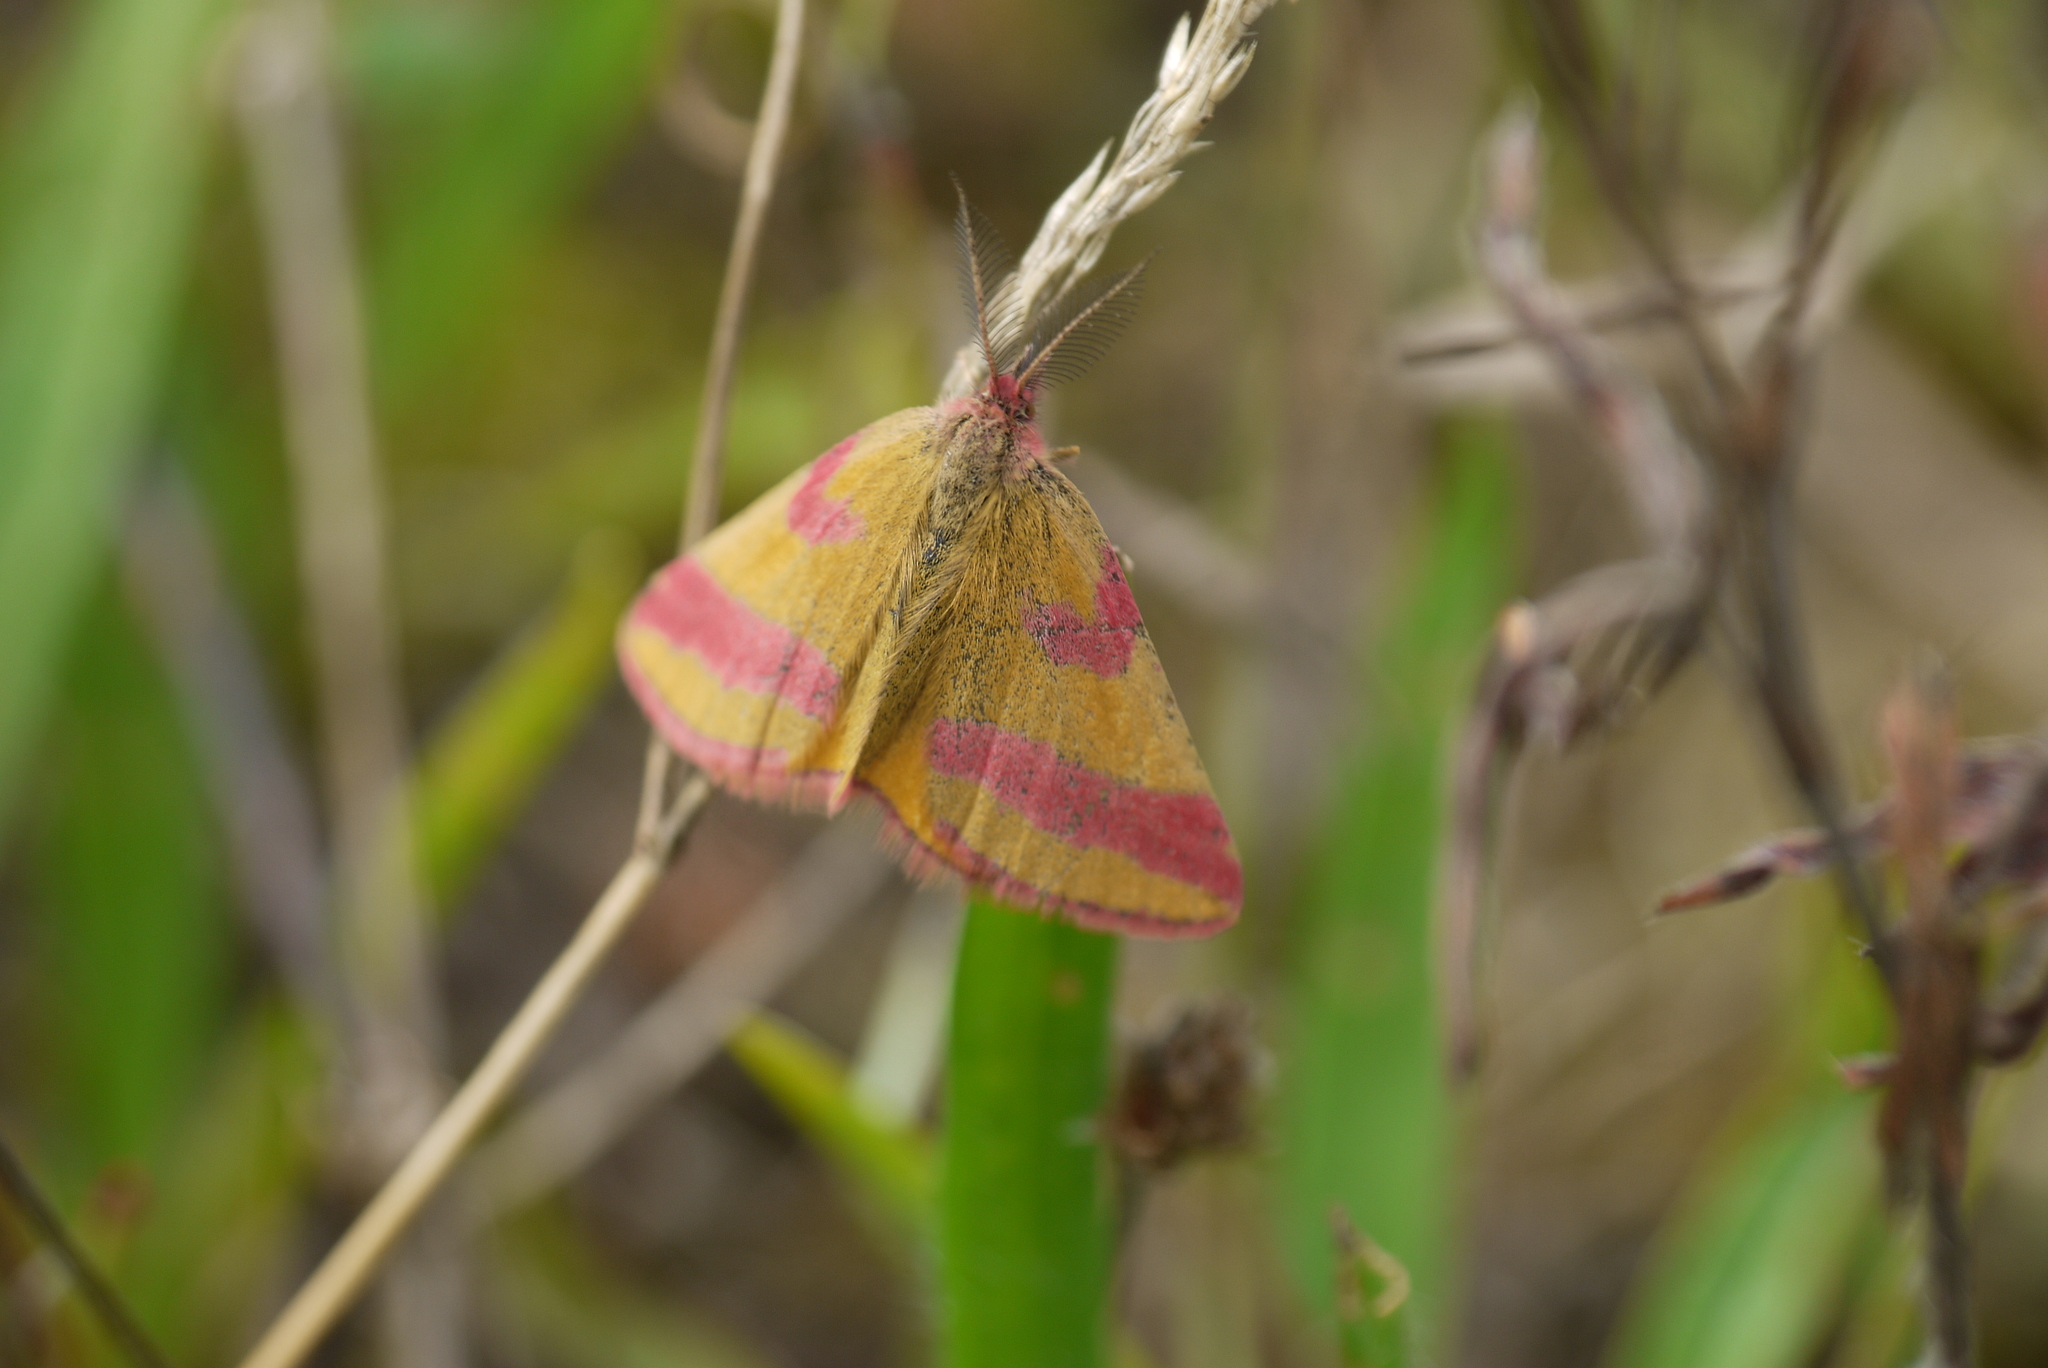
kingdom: Animalia
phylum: Arthropoda
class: Insecta
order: Lepidoptera
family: Geometridae
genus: Lythria
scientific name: Lythria cruentaria
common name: Purple-barred yellow
